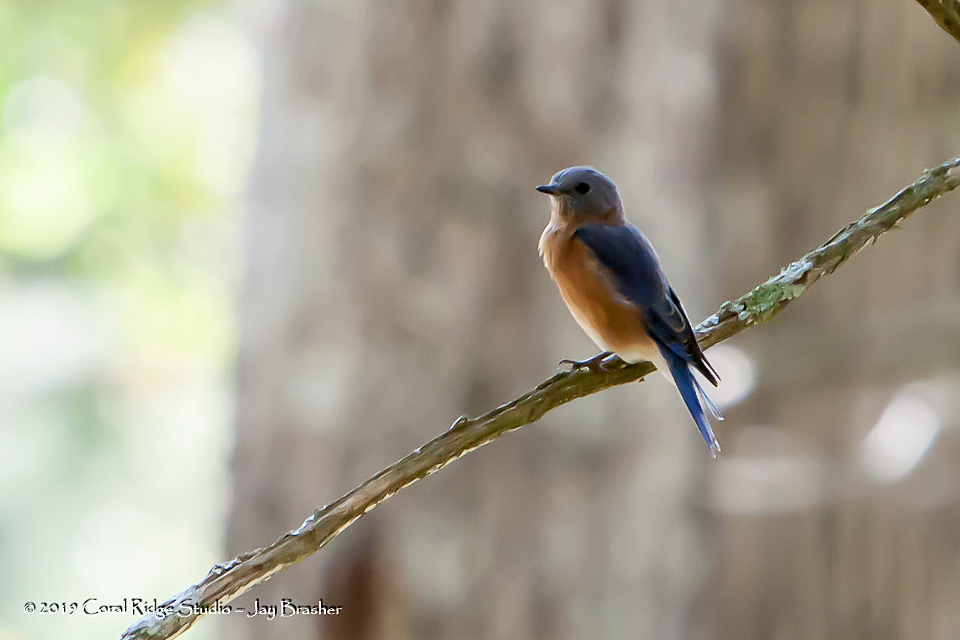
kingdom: Animalia
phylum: Chordata
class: Aves
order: Passeriformes
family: Turdidae
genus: Sialia
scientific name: Sialia sialis
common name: Eastern bluebird
